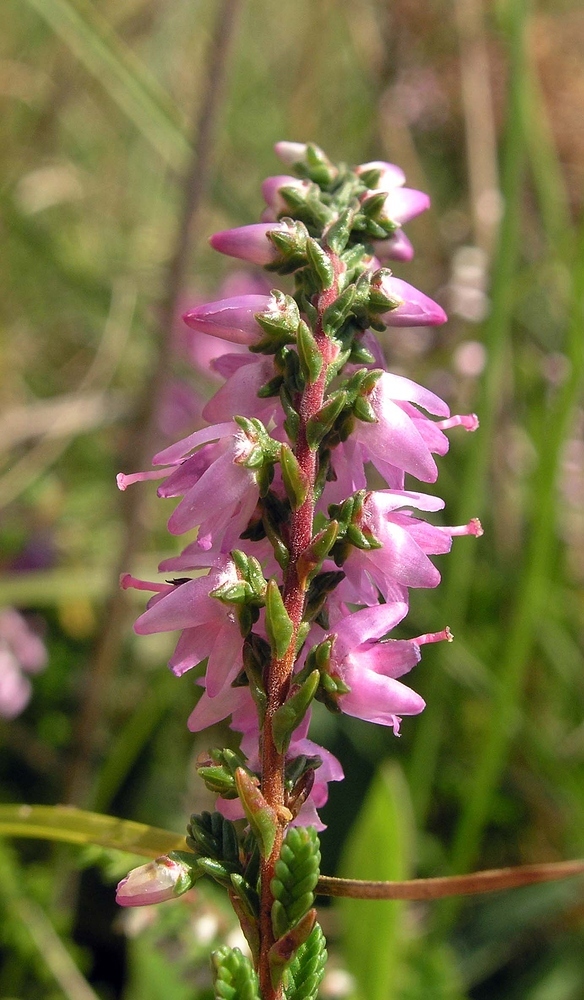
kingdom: Plantae
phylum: Tracheophyta
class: Magnoliopsida
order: Ericales
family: Ericaceae
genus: Calluna
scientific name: Calluna vulgaris
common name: Heather
